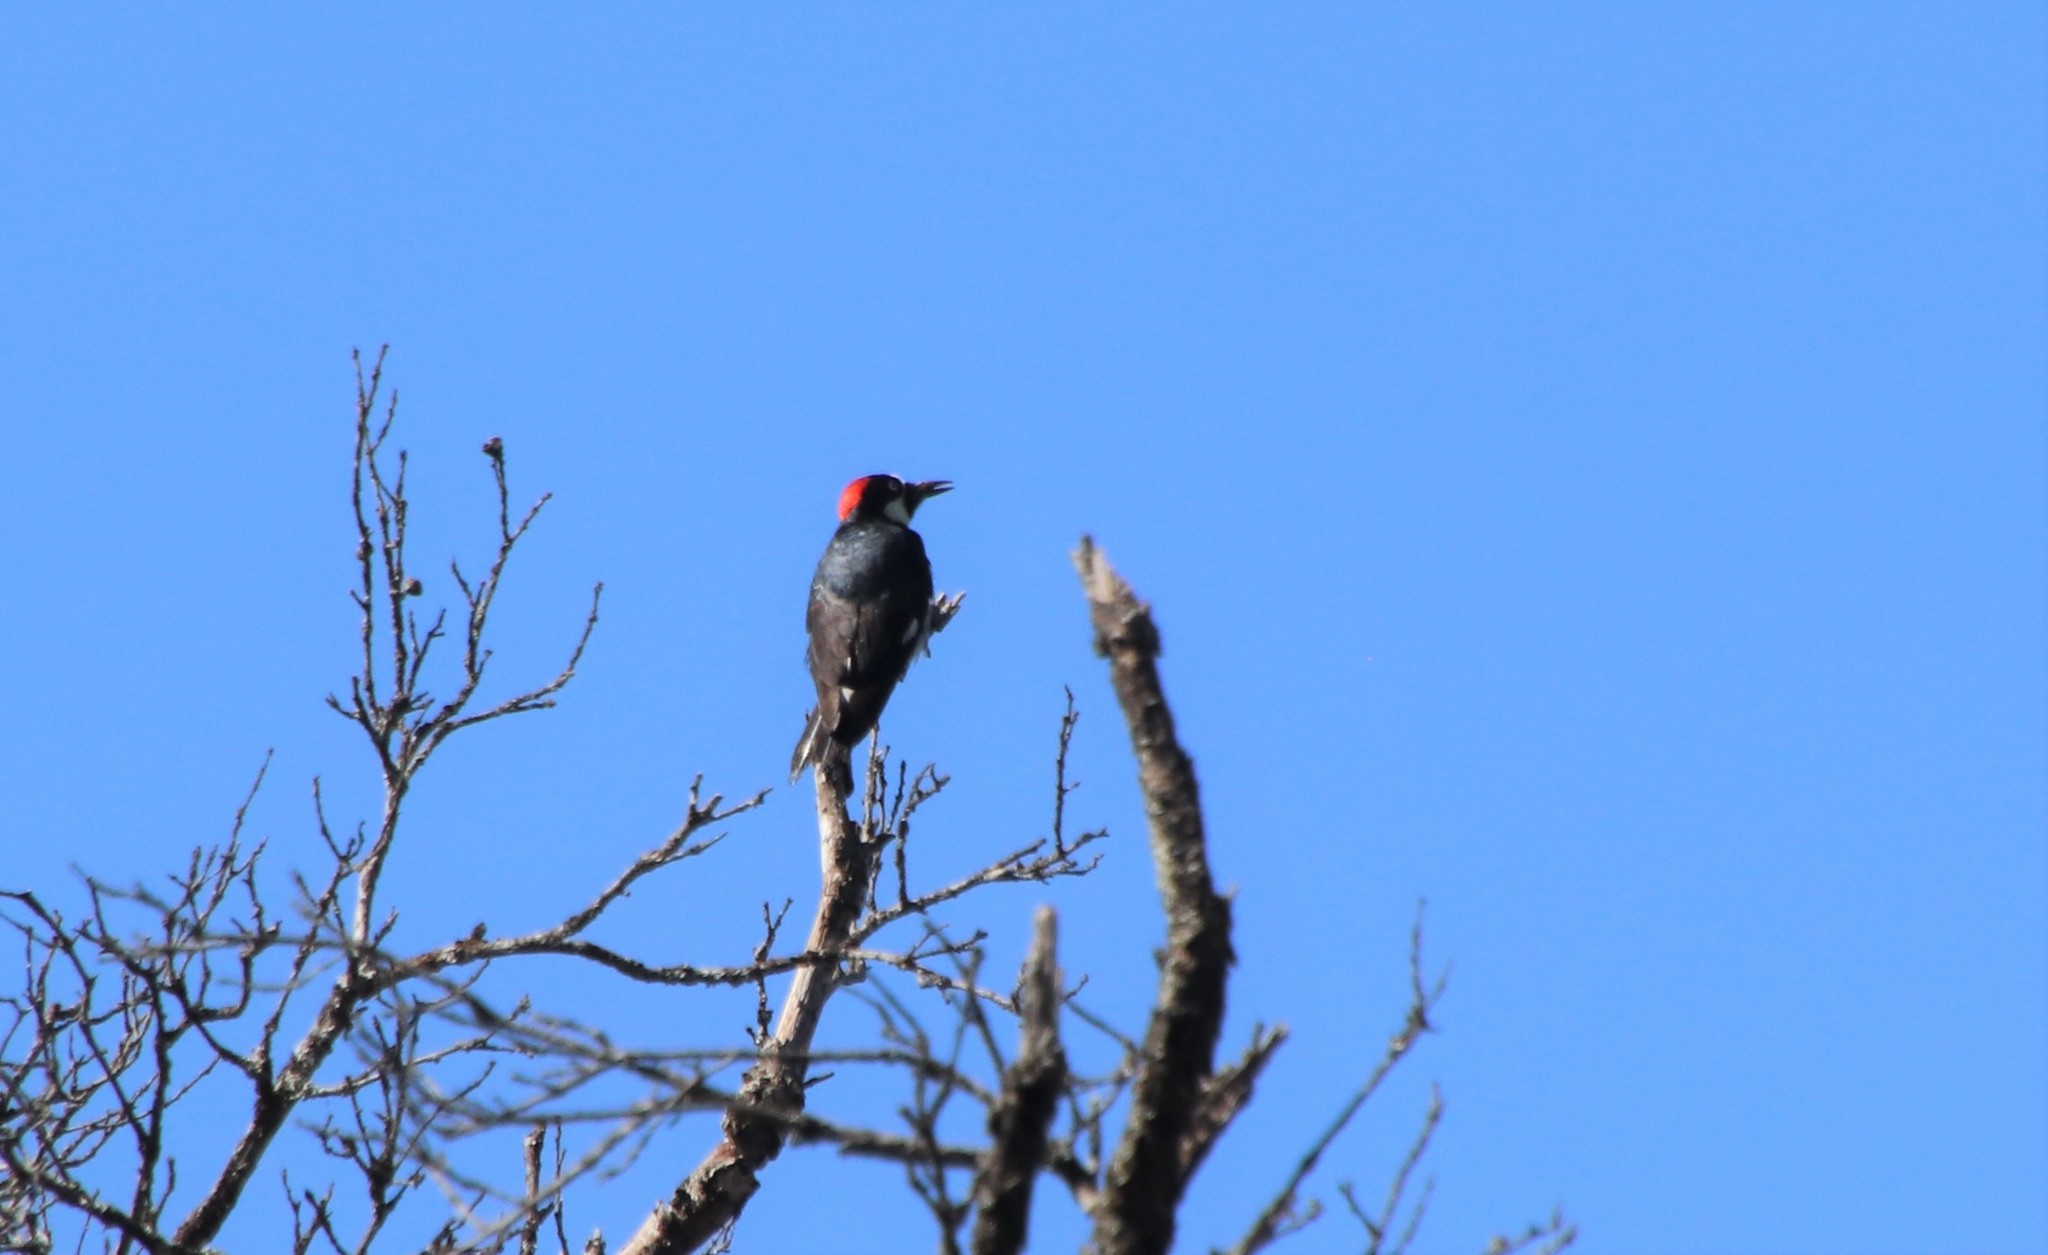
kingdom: Animalia
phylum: Chordata
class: Aves
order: Piciformes
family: Picidae
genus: Melanerpes
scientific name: Melanerpes formicivorus
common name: Acorn woodpecker
